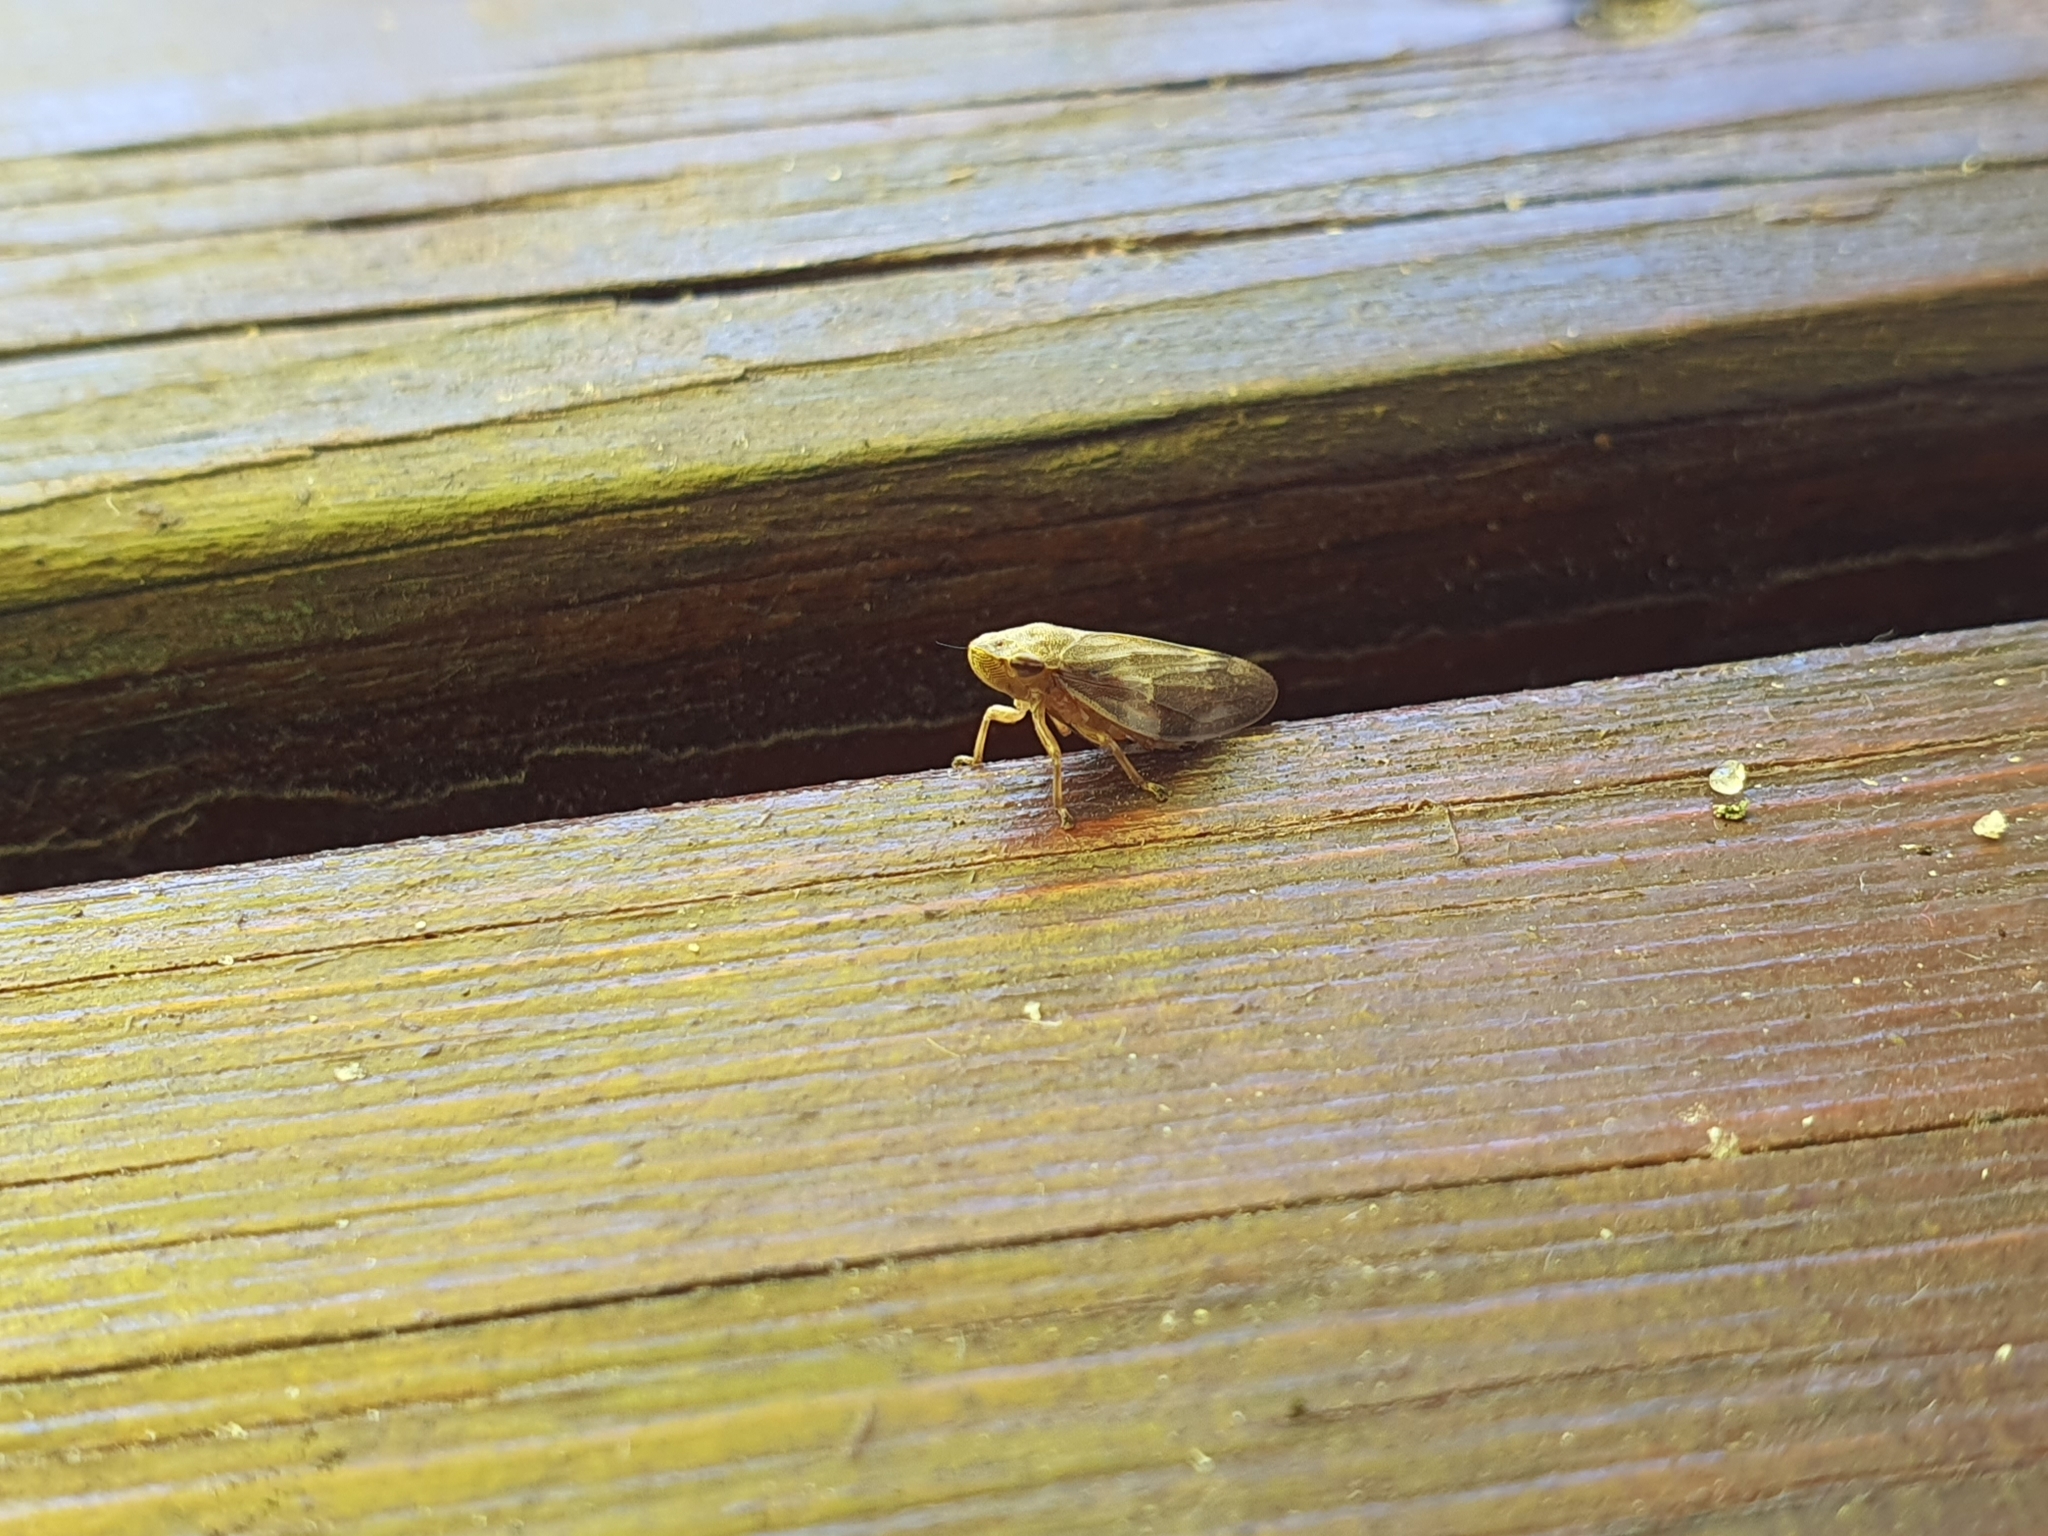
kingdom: Animalia
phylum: Arthropoda
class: Insecta
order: Hemiptera
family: Aphrophoridae
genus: Philaenus
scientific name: Philaenus spumarius
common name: Meadow spittlebug
